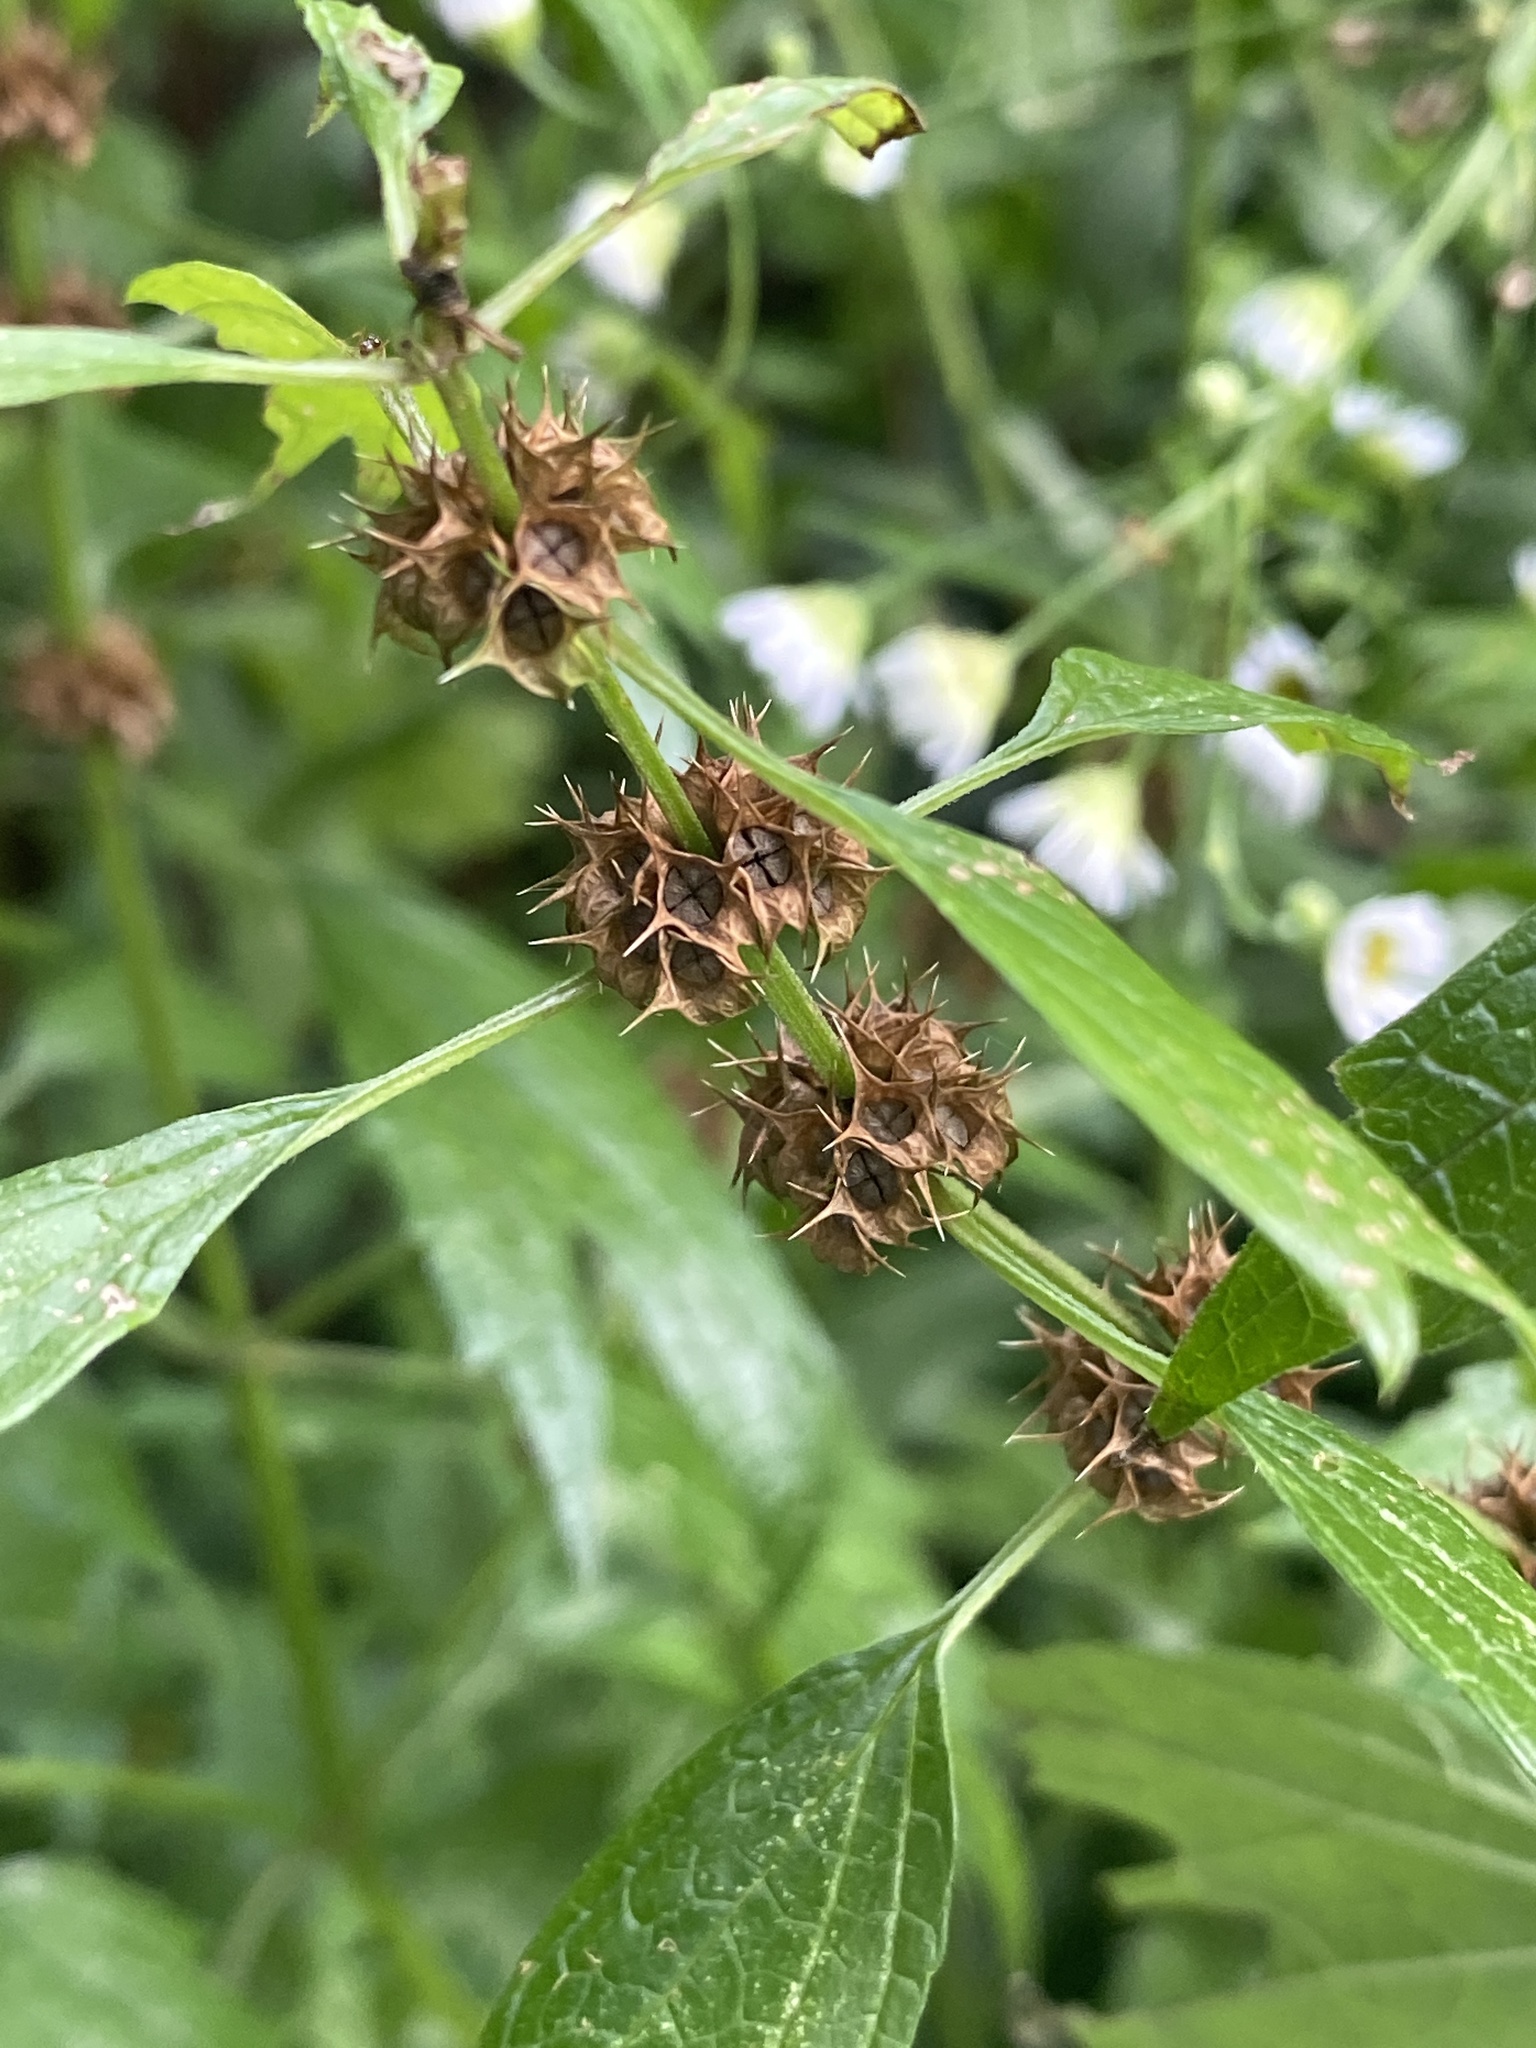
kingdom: Plantae
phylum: Tracheophyta
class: Magnoliopsida
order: Lamiales
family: Lamiaceae
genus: Leonurus
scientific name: Leonurus cardiaca
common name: Motherwort
